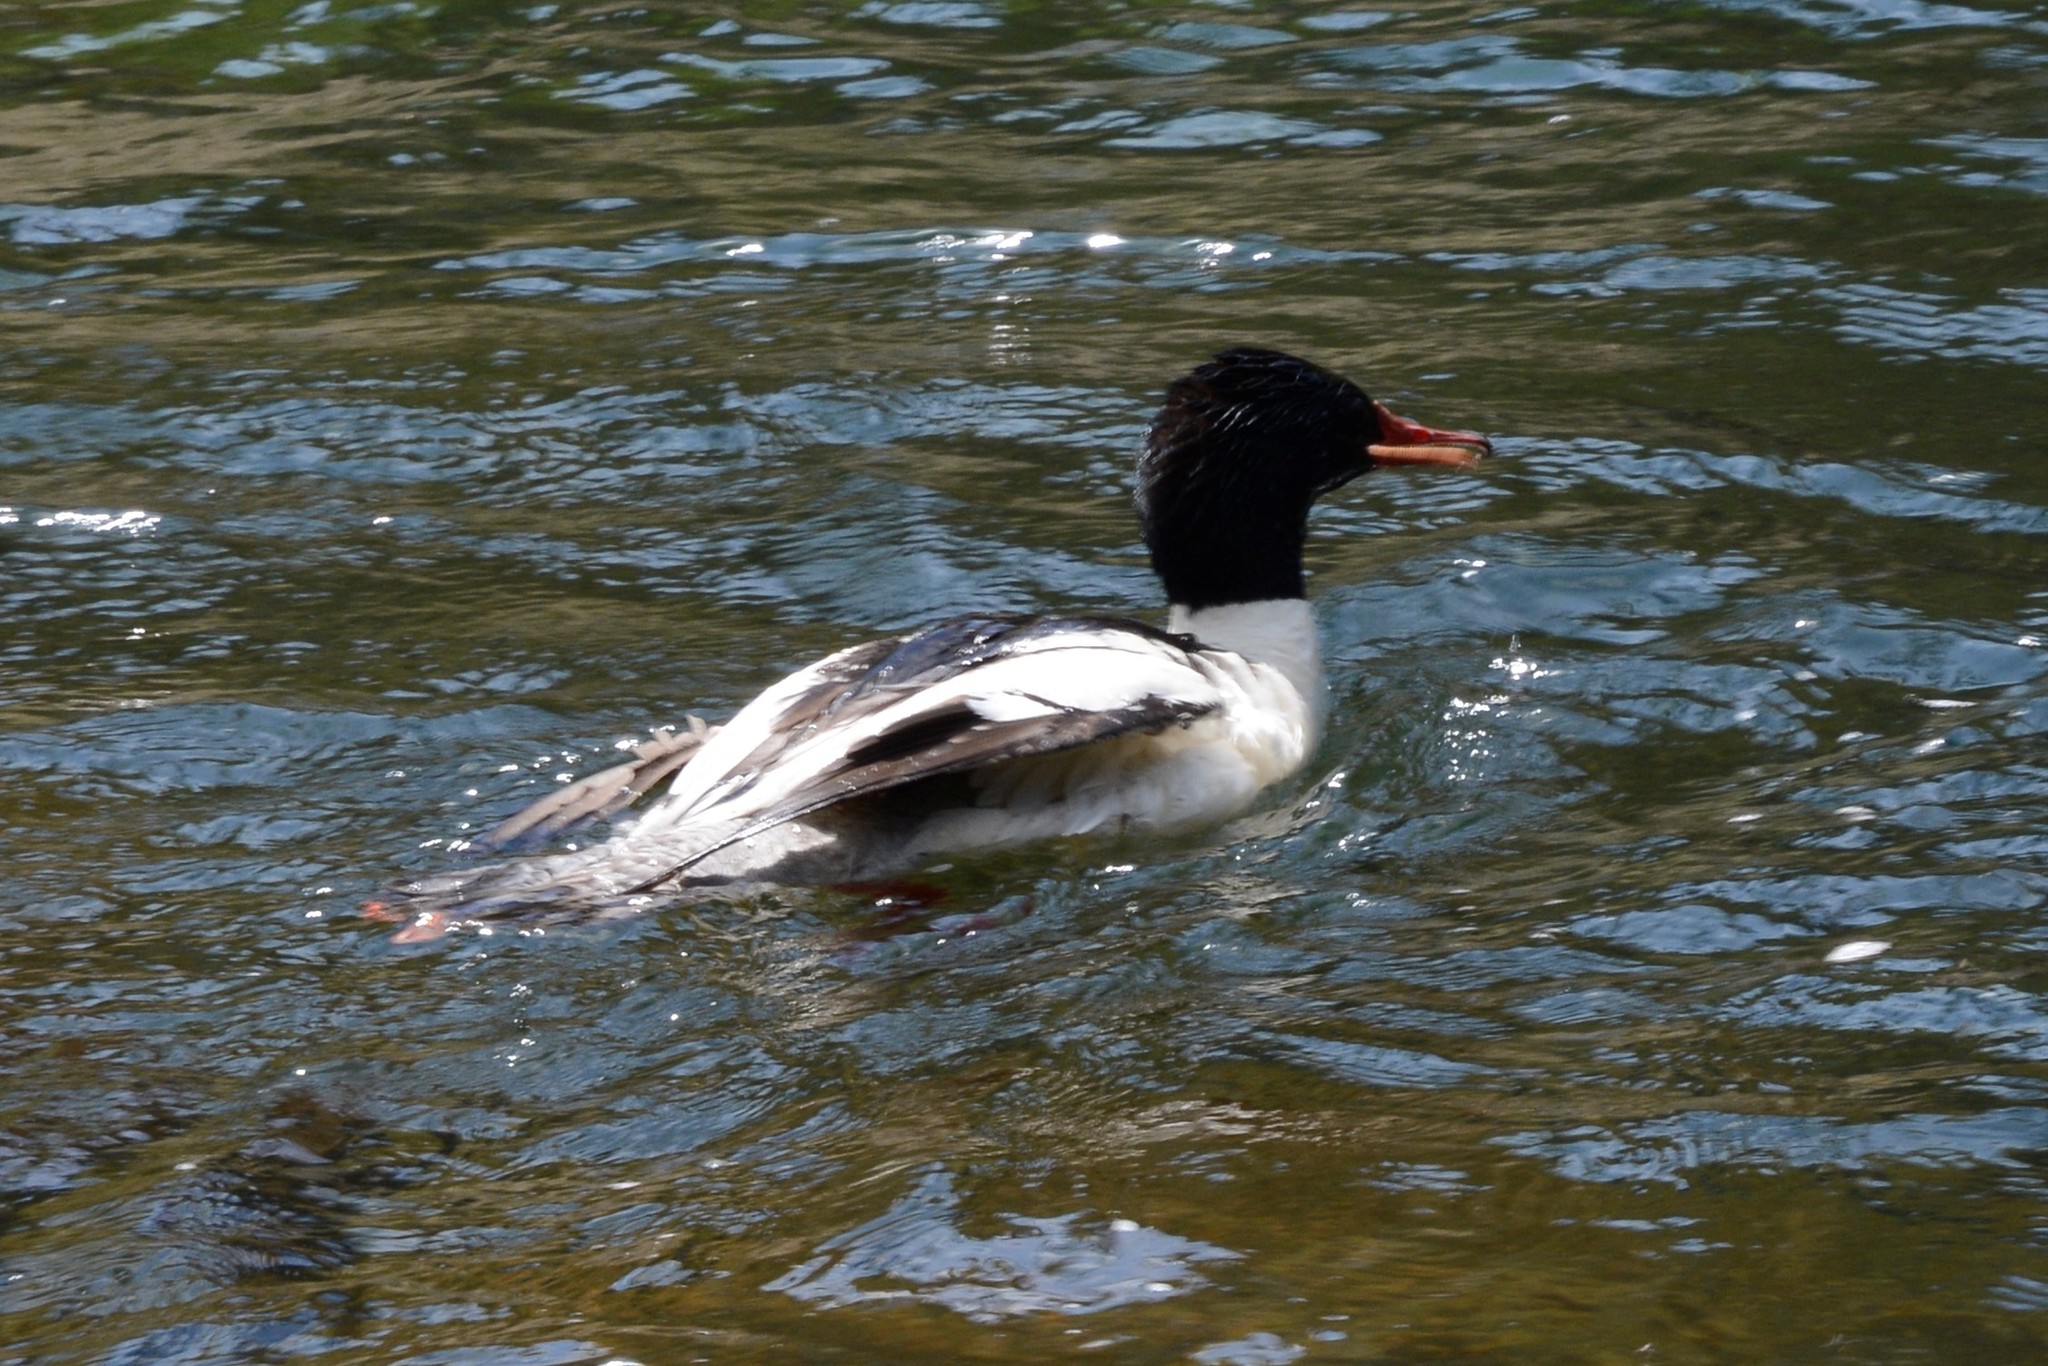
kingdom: Animalia
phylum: Chordata
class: Aves
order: Anseriformes
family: Anatidae
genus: Mergus
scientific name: Mergus merganser
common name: Common merganser
